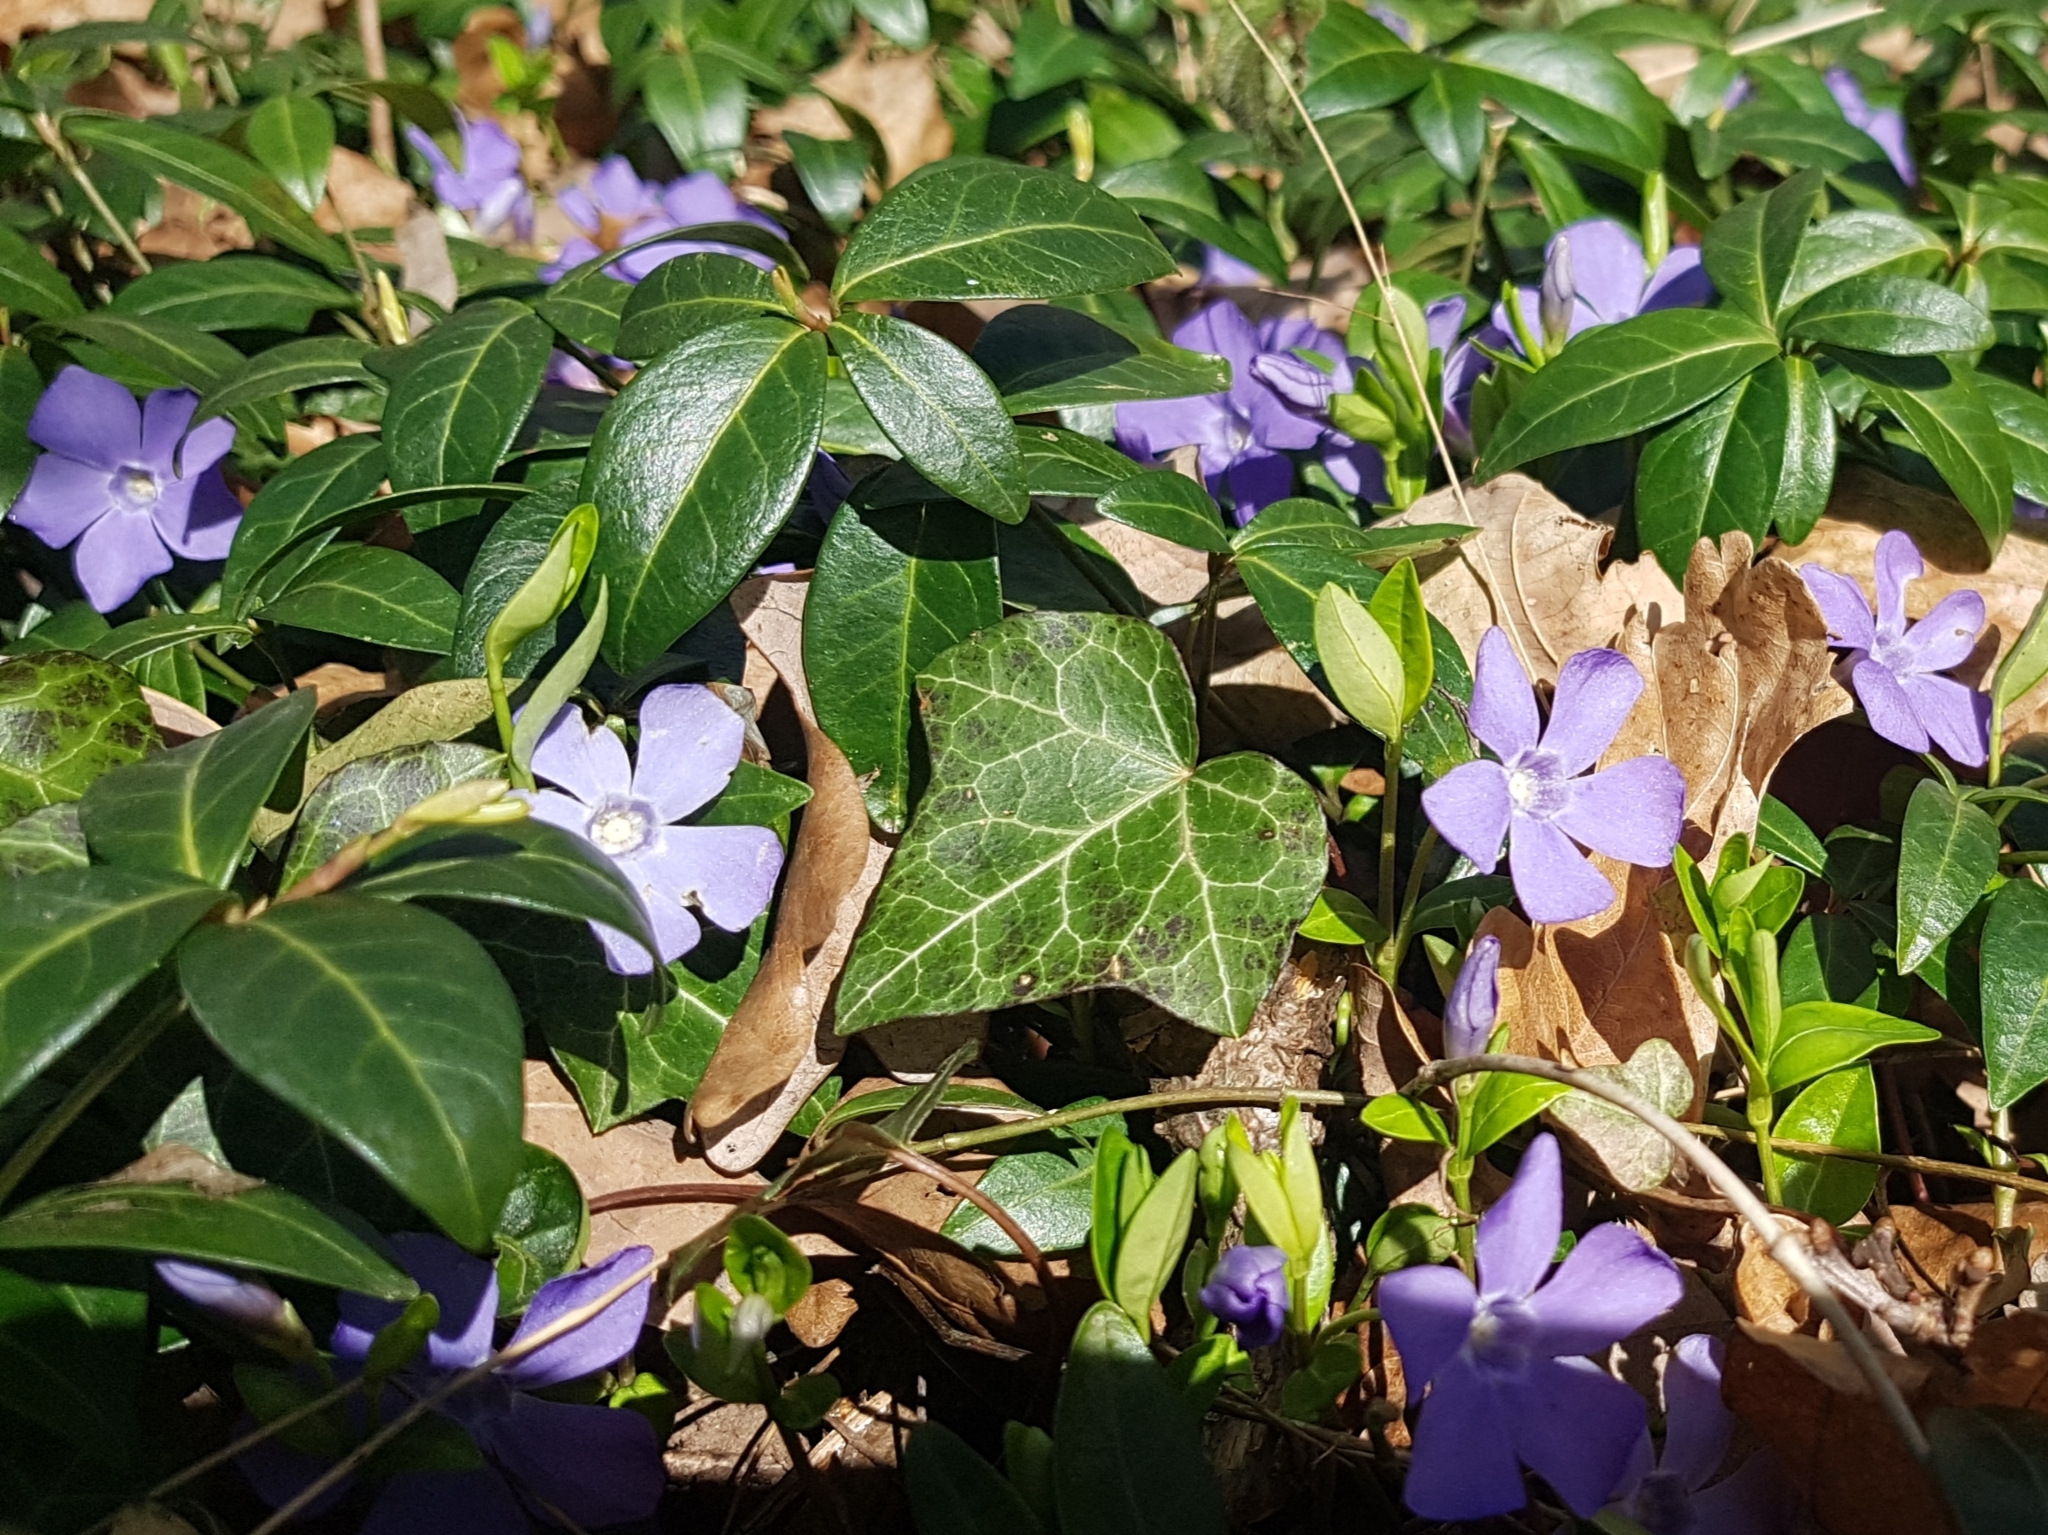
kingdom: Plantae
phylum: Tracheophyta
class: Magnoliopsida
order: Gentianales
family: Apocynaceae
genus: Vinca
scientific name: Vinca minor
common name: Lesser periwinkle
